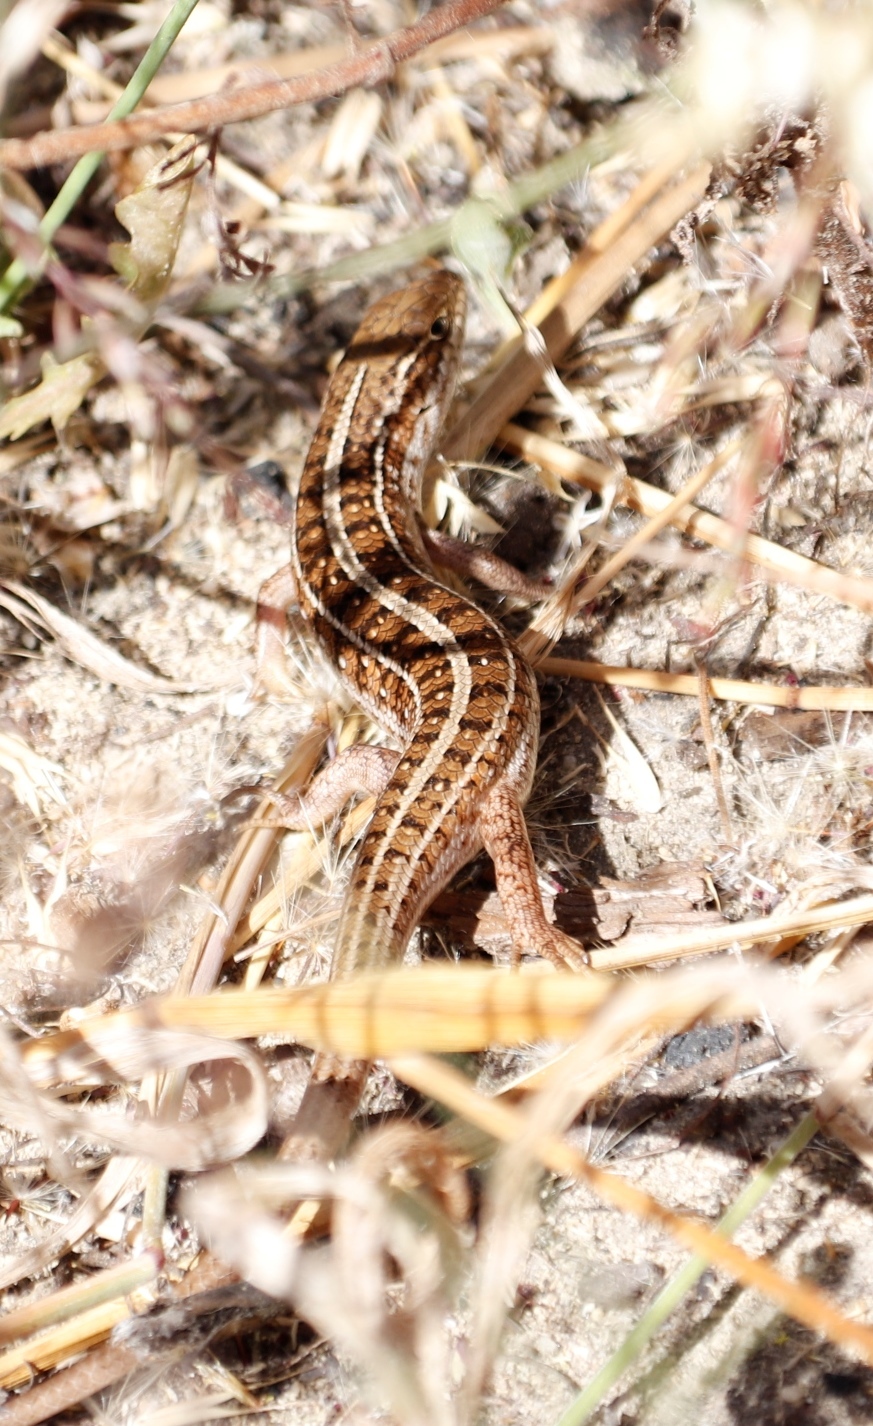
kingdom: Animalia
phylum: Chordata
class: Squamata
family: Scincidae
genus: Trachylepis
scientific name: Trachylepis capensis
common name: Cape skink
